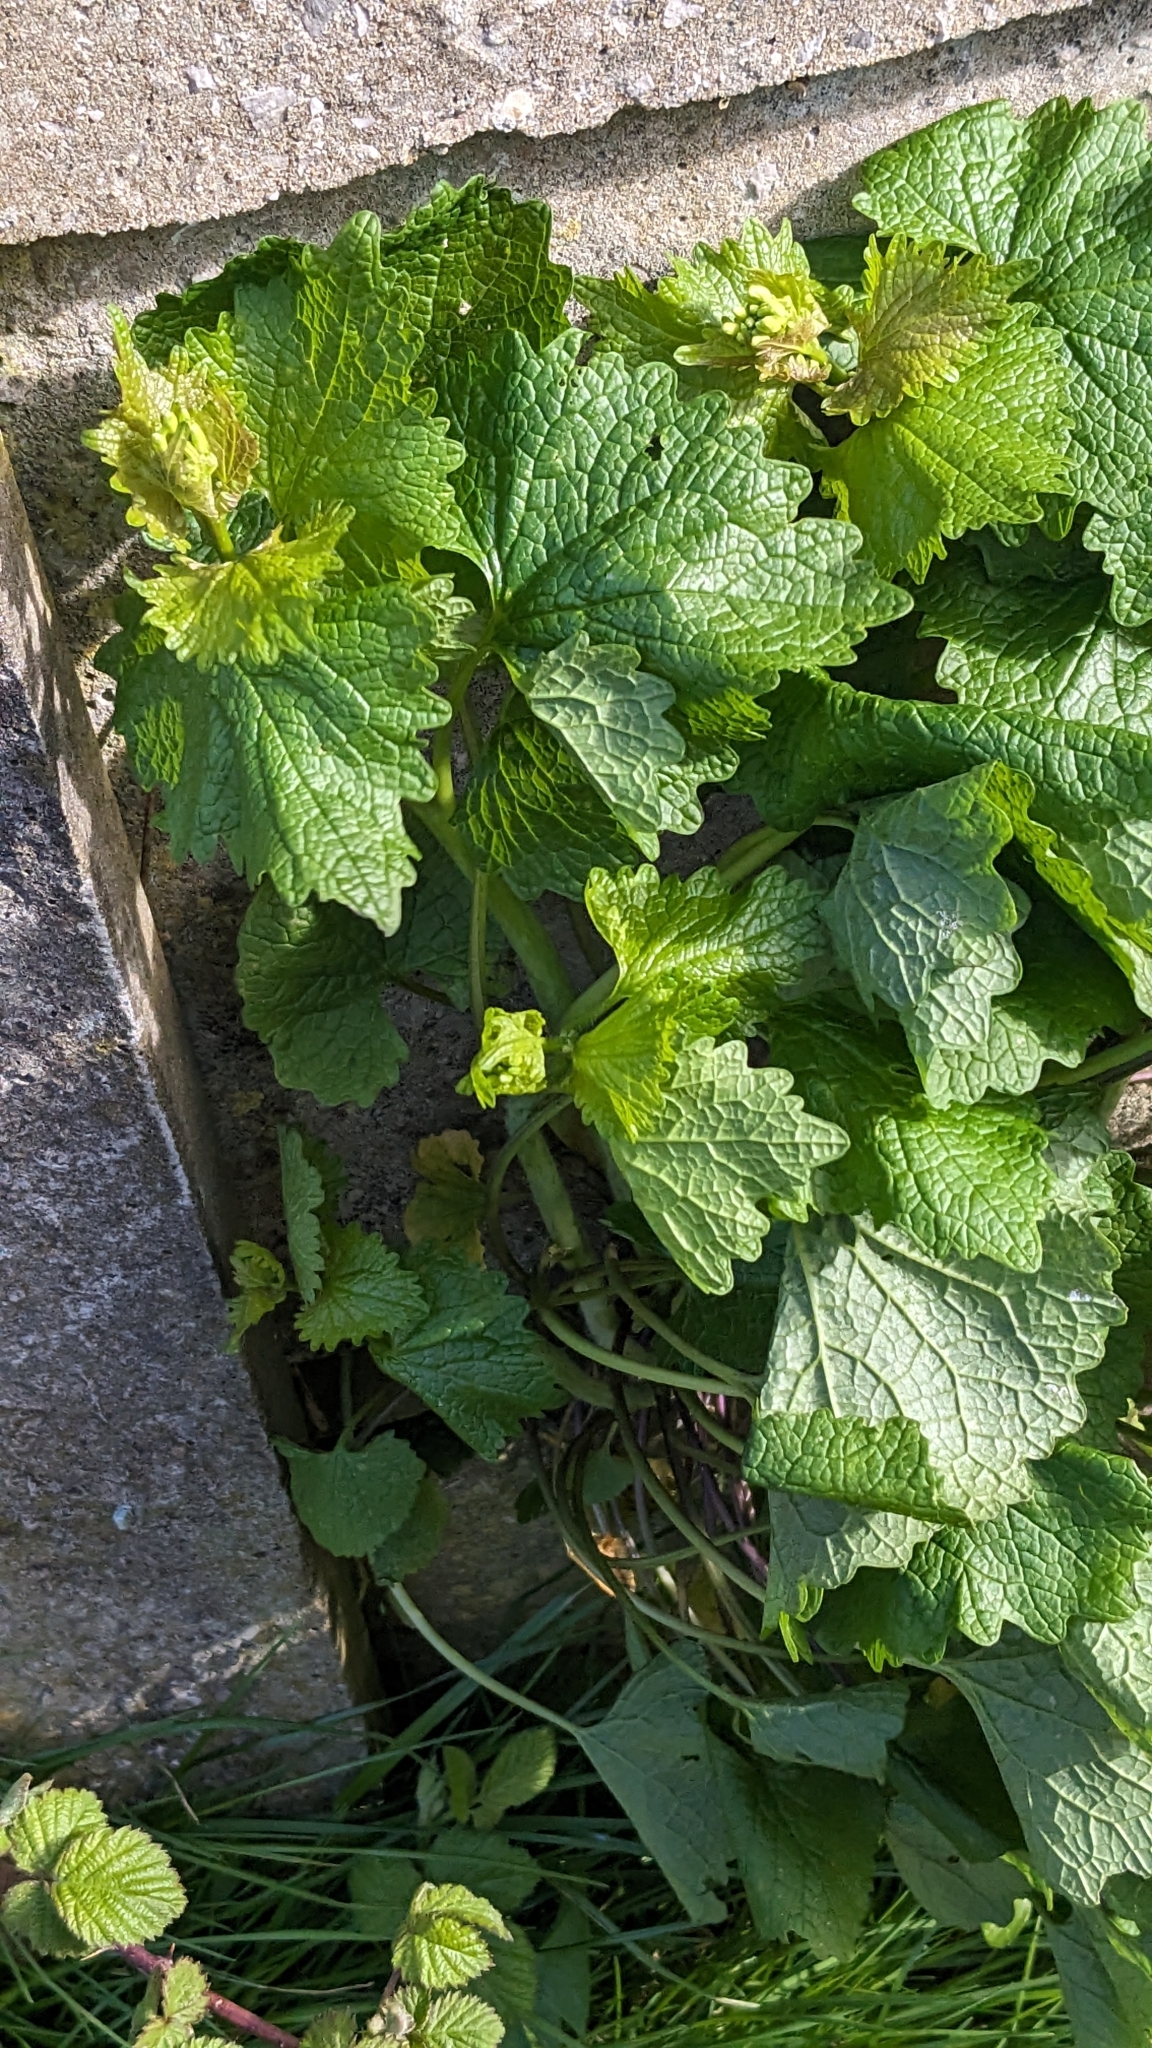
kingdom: Plantae
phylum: Tracheophyta
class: Magnoliopsida
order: Brassicales
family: Brassicaceae
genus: Alliaria
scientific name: Alliaria petiolata
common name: Garlic mustard
